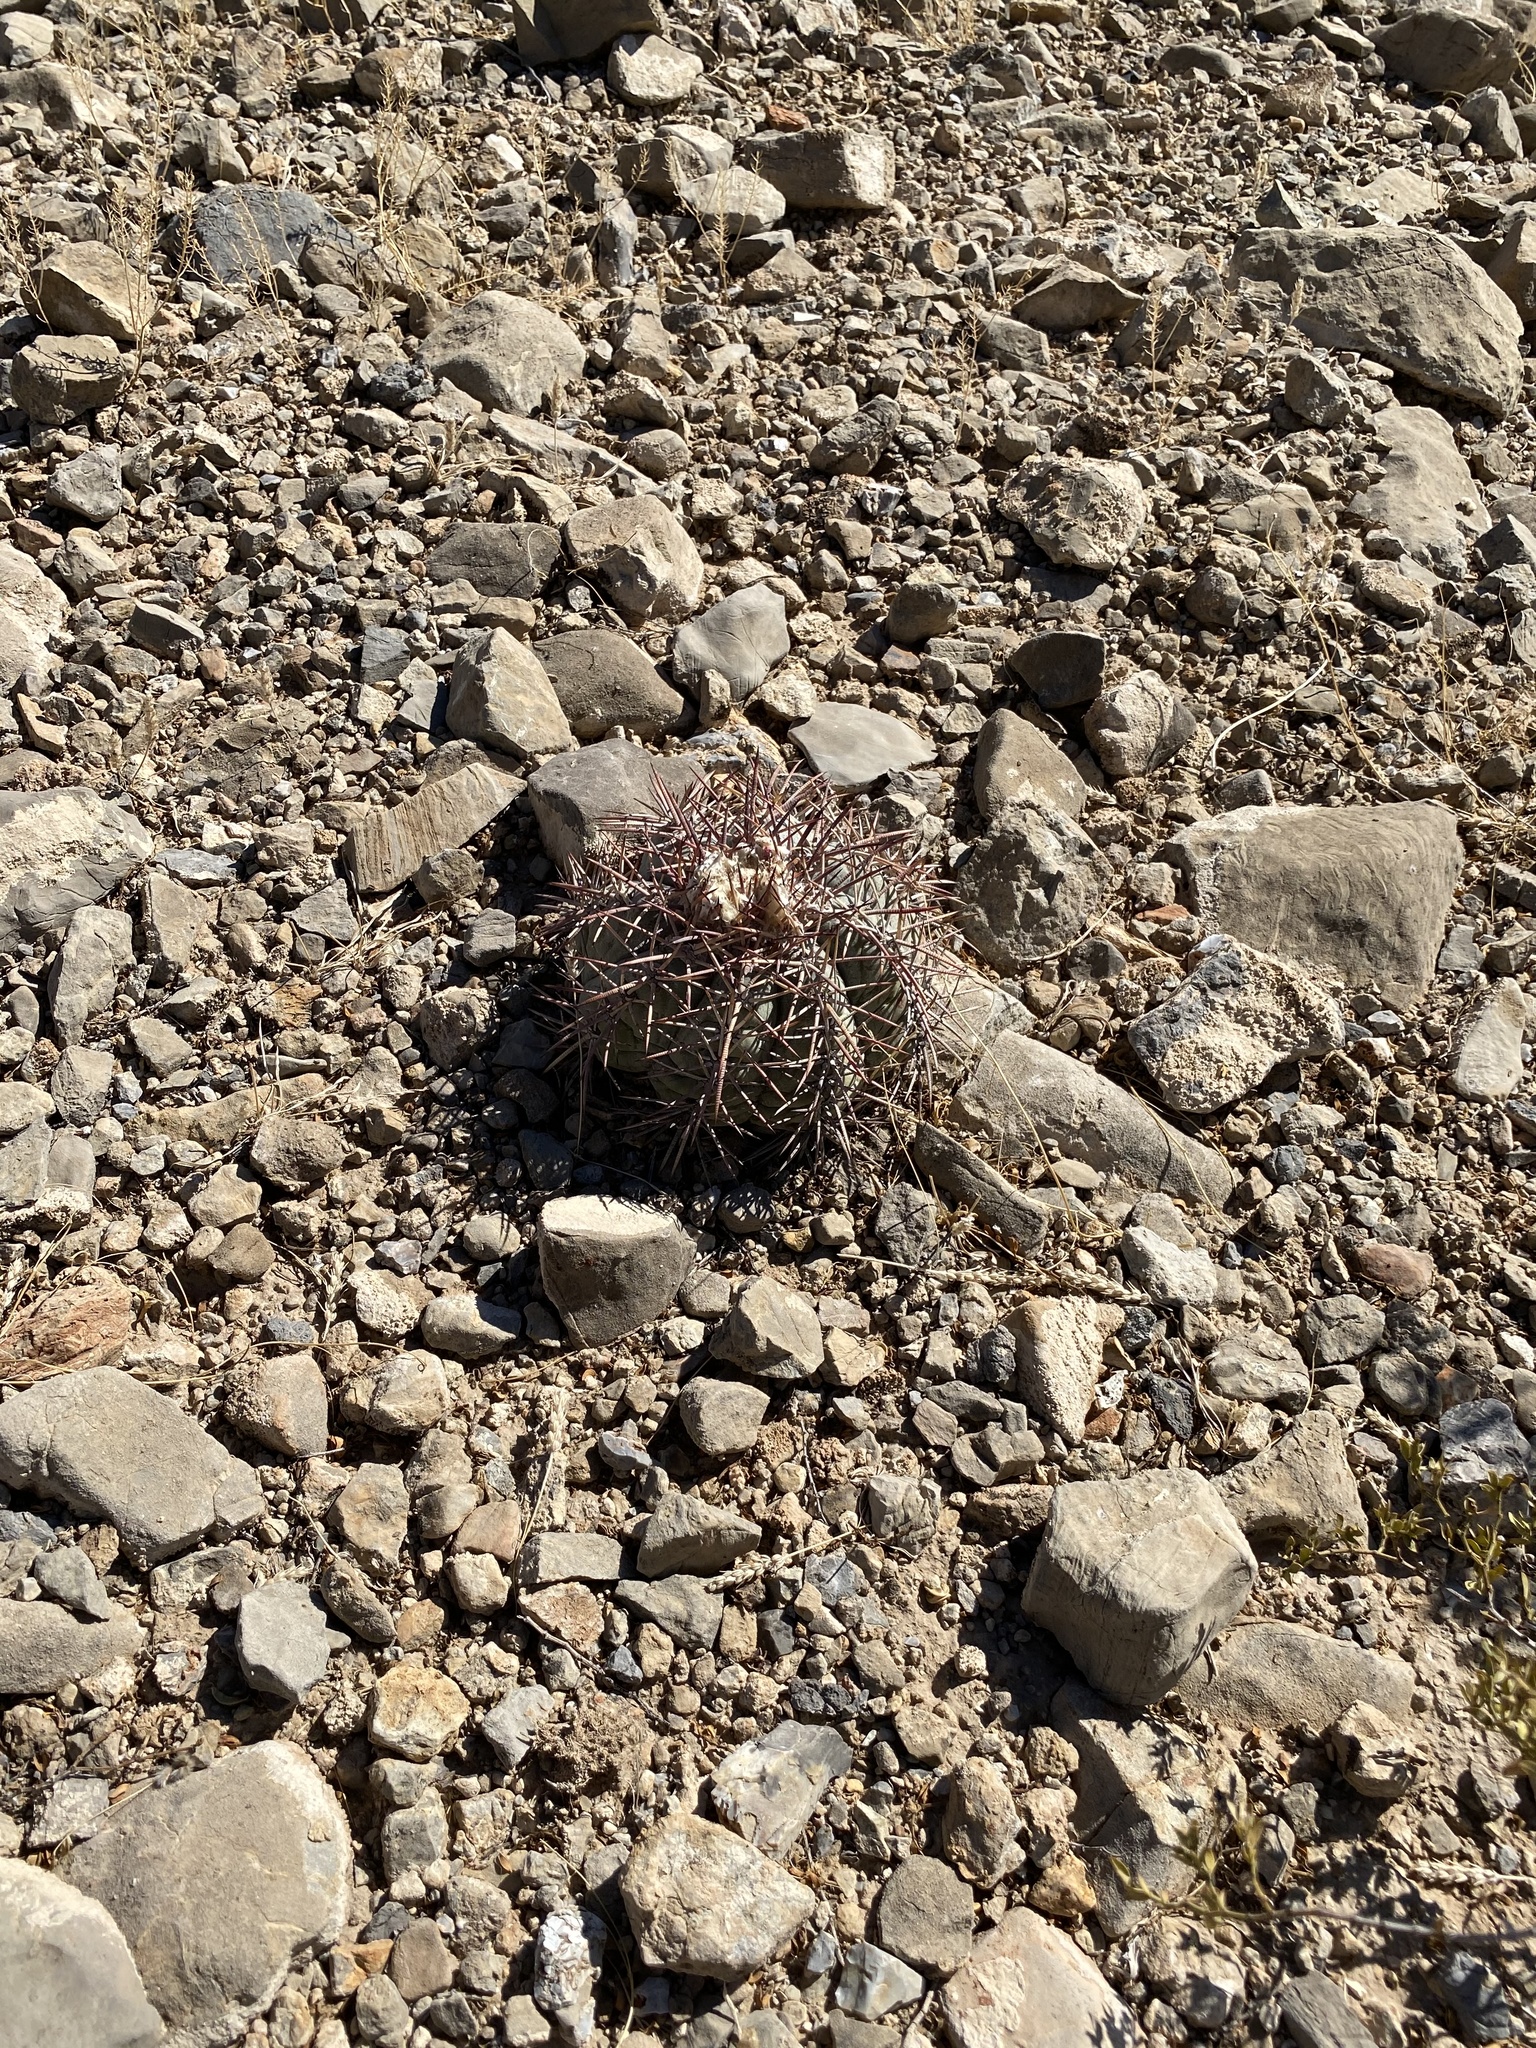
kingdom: Plantae
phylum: Tracheophyta
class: Magnoliopsida
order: Caryophyllales
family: Cactaceae
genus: Echinocactus
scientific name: Echinocactus horizonthalonius
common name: Devilshead
